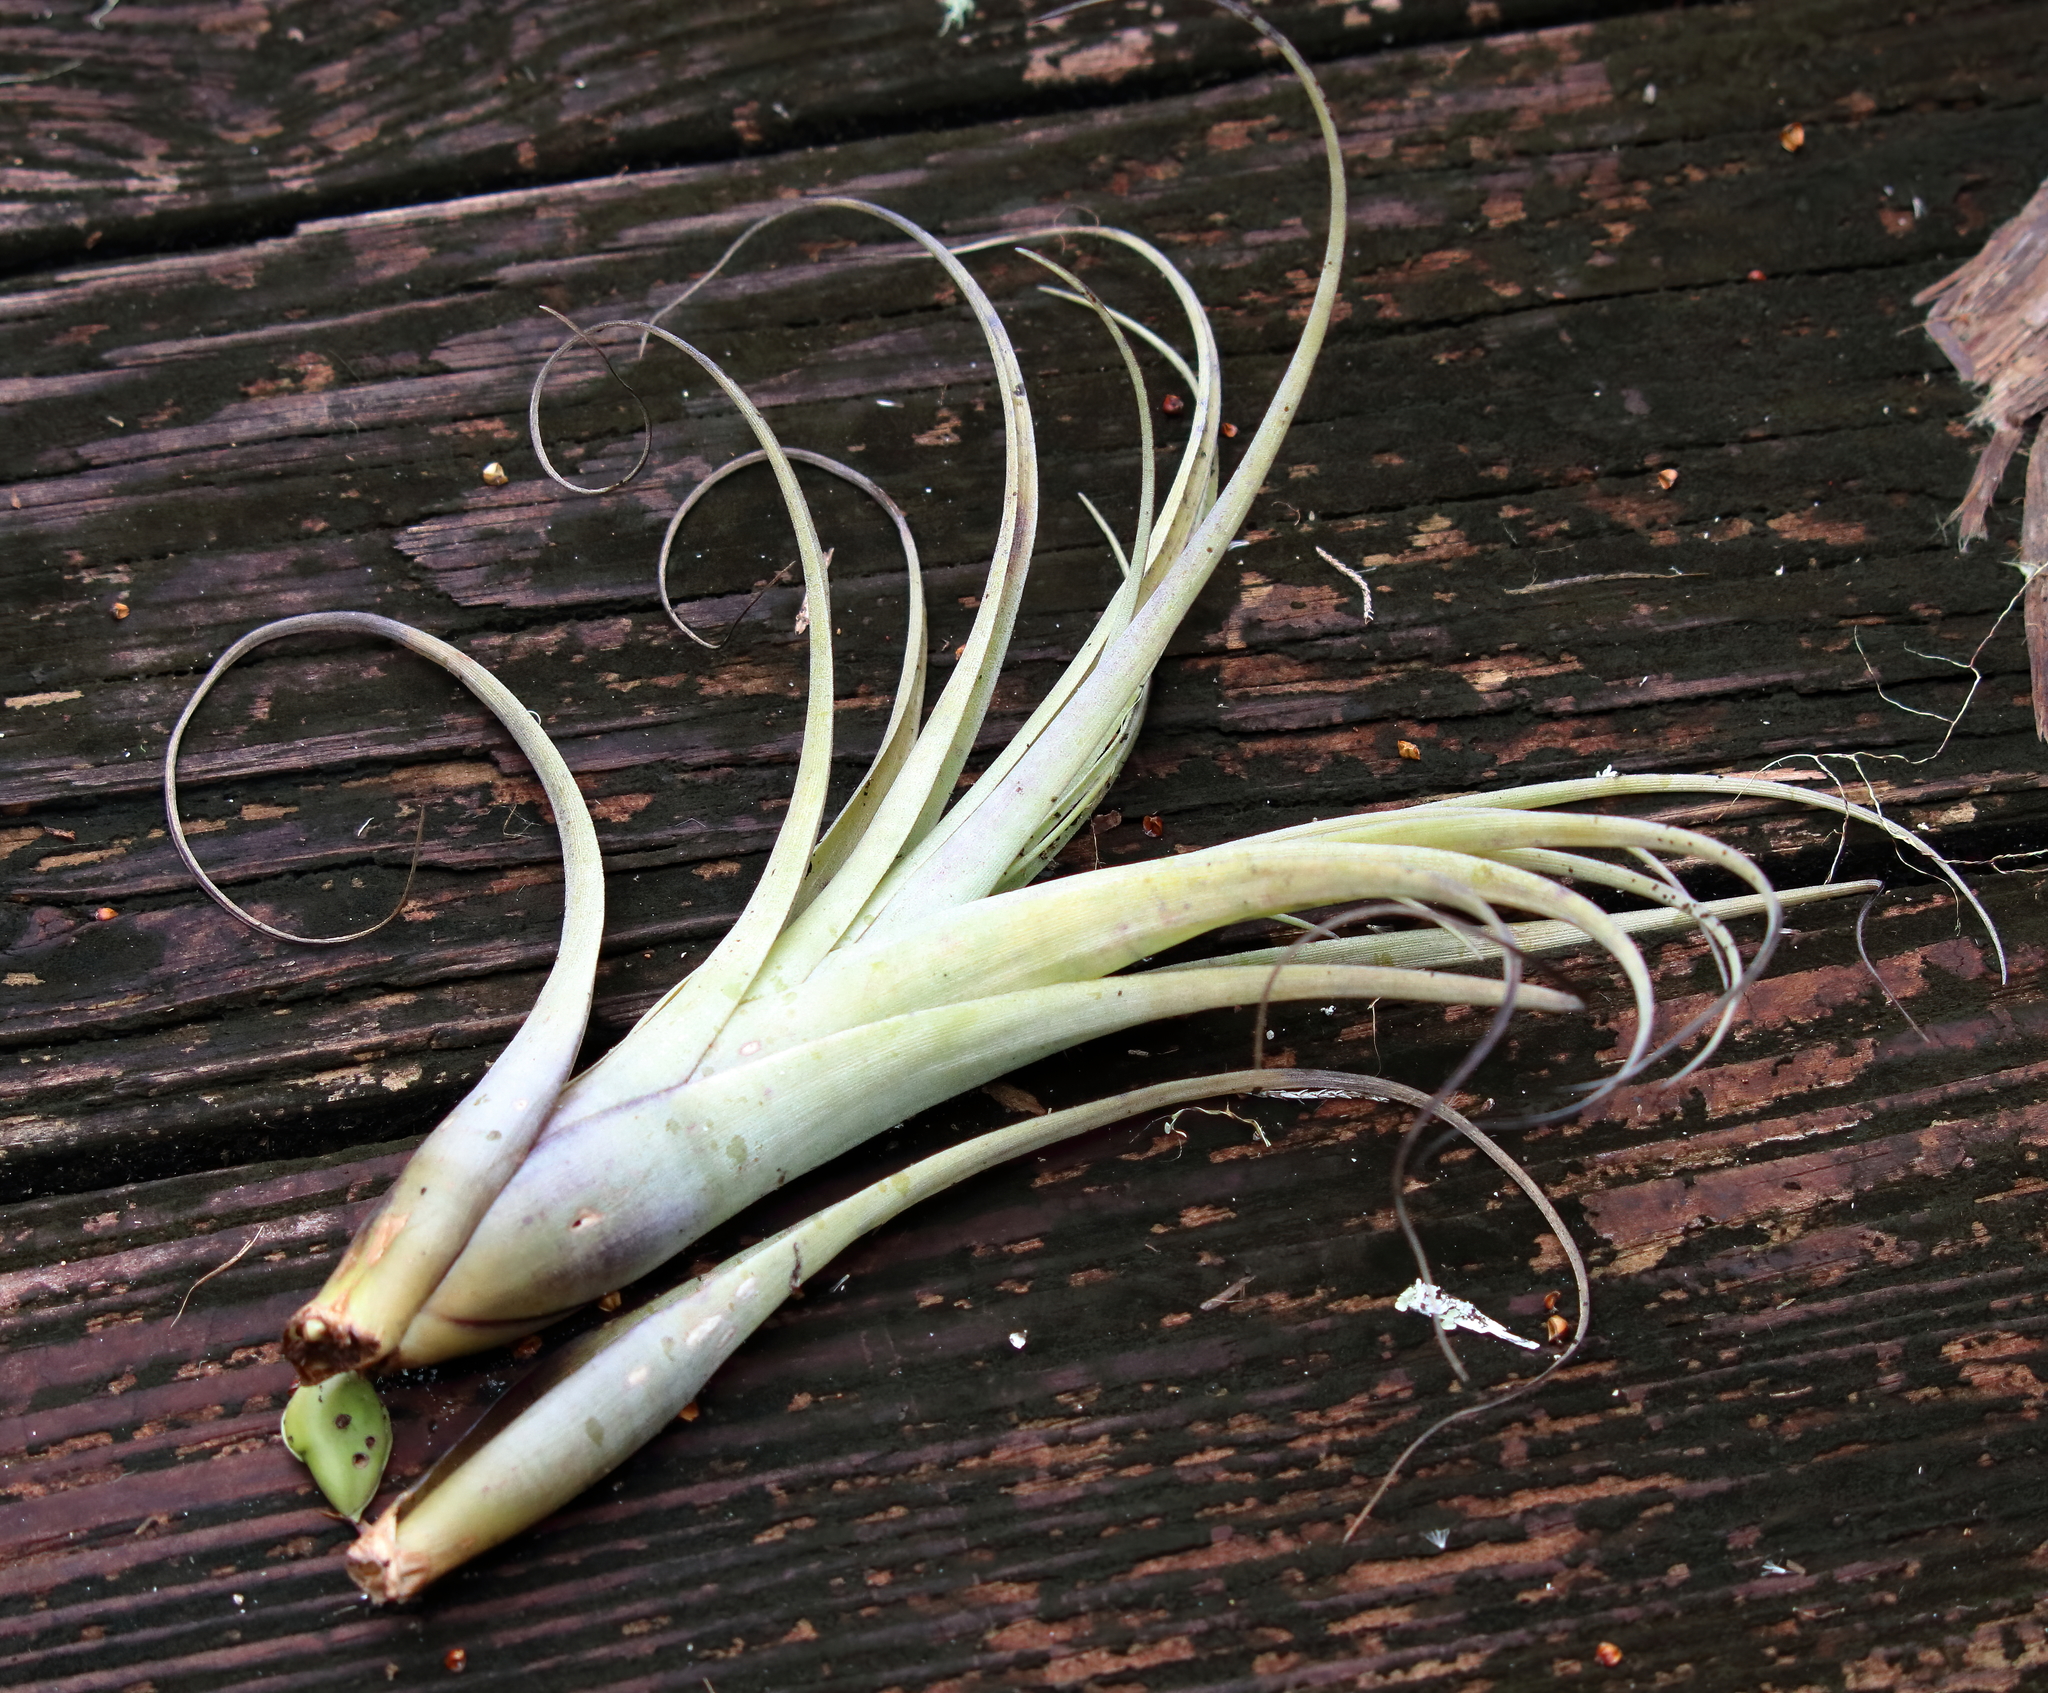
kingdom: Plantae
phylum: Tracheophyta
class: Liliopsida
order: Poales
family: Bromeliaceae
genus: Tillandsia
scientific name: Tillandsia utriculata
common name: Wild pine
